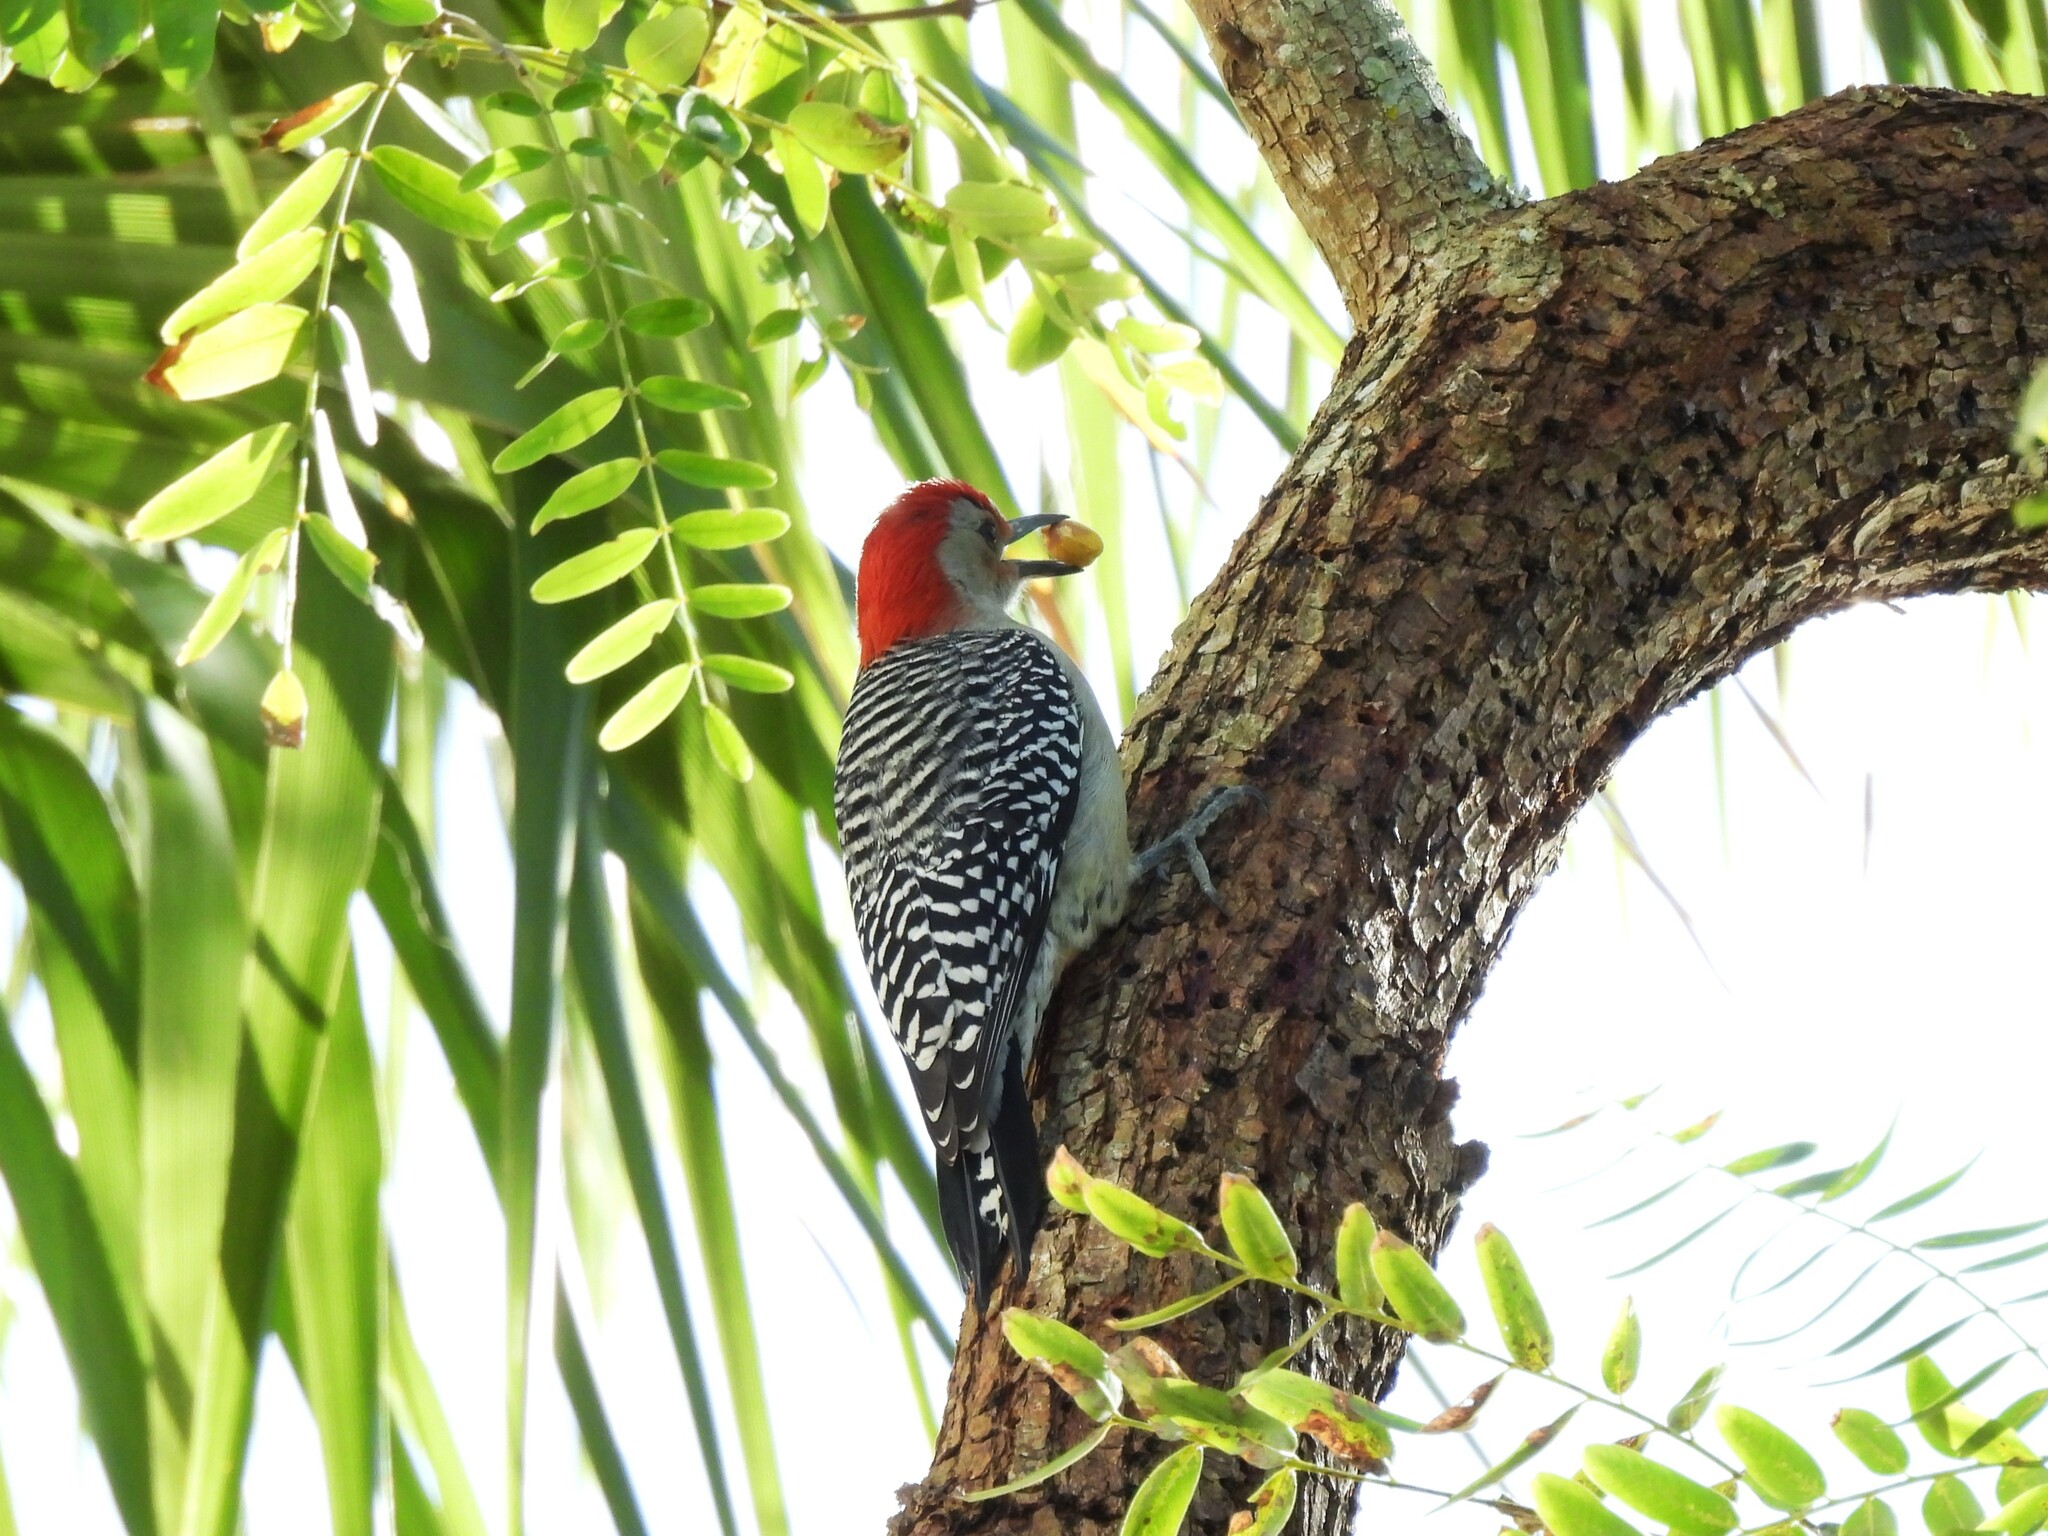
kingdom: Animalia
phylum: Chordata
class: Aves
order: Piciformes
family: Picidae
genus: Melanerpes
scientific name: Melanerpes carolinus
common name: Red-bellied woodpecker
